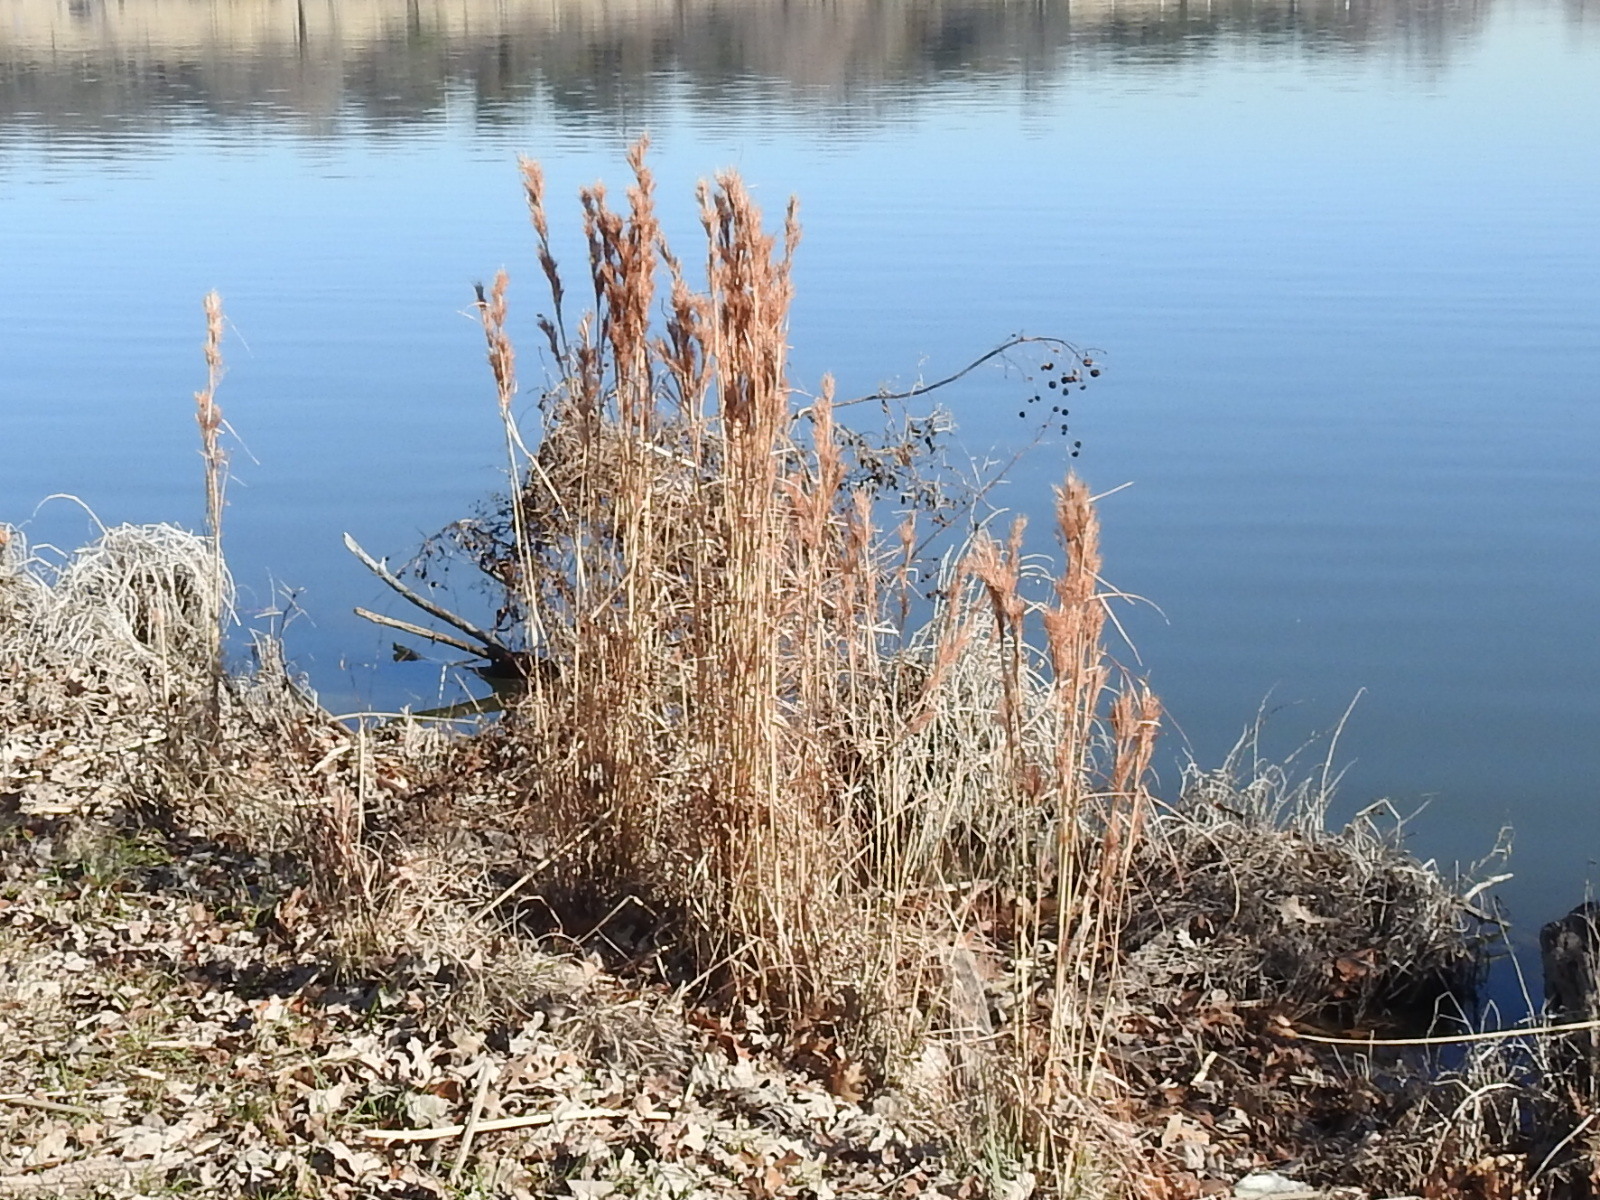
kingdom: Plantae
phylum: Tracheophyta
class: Liliopsida
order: Poales
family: Poaceae
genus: Andropogon
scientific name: Andropogon tenuispatheus
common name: Bushy bluestem
